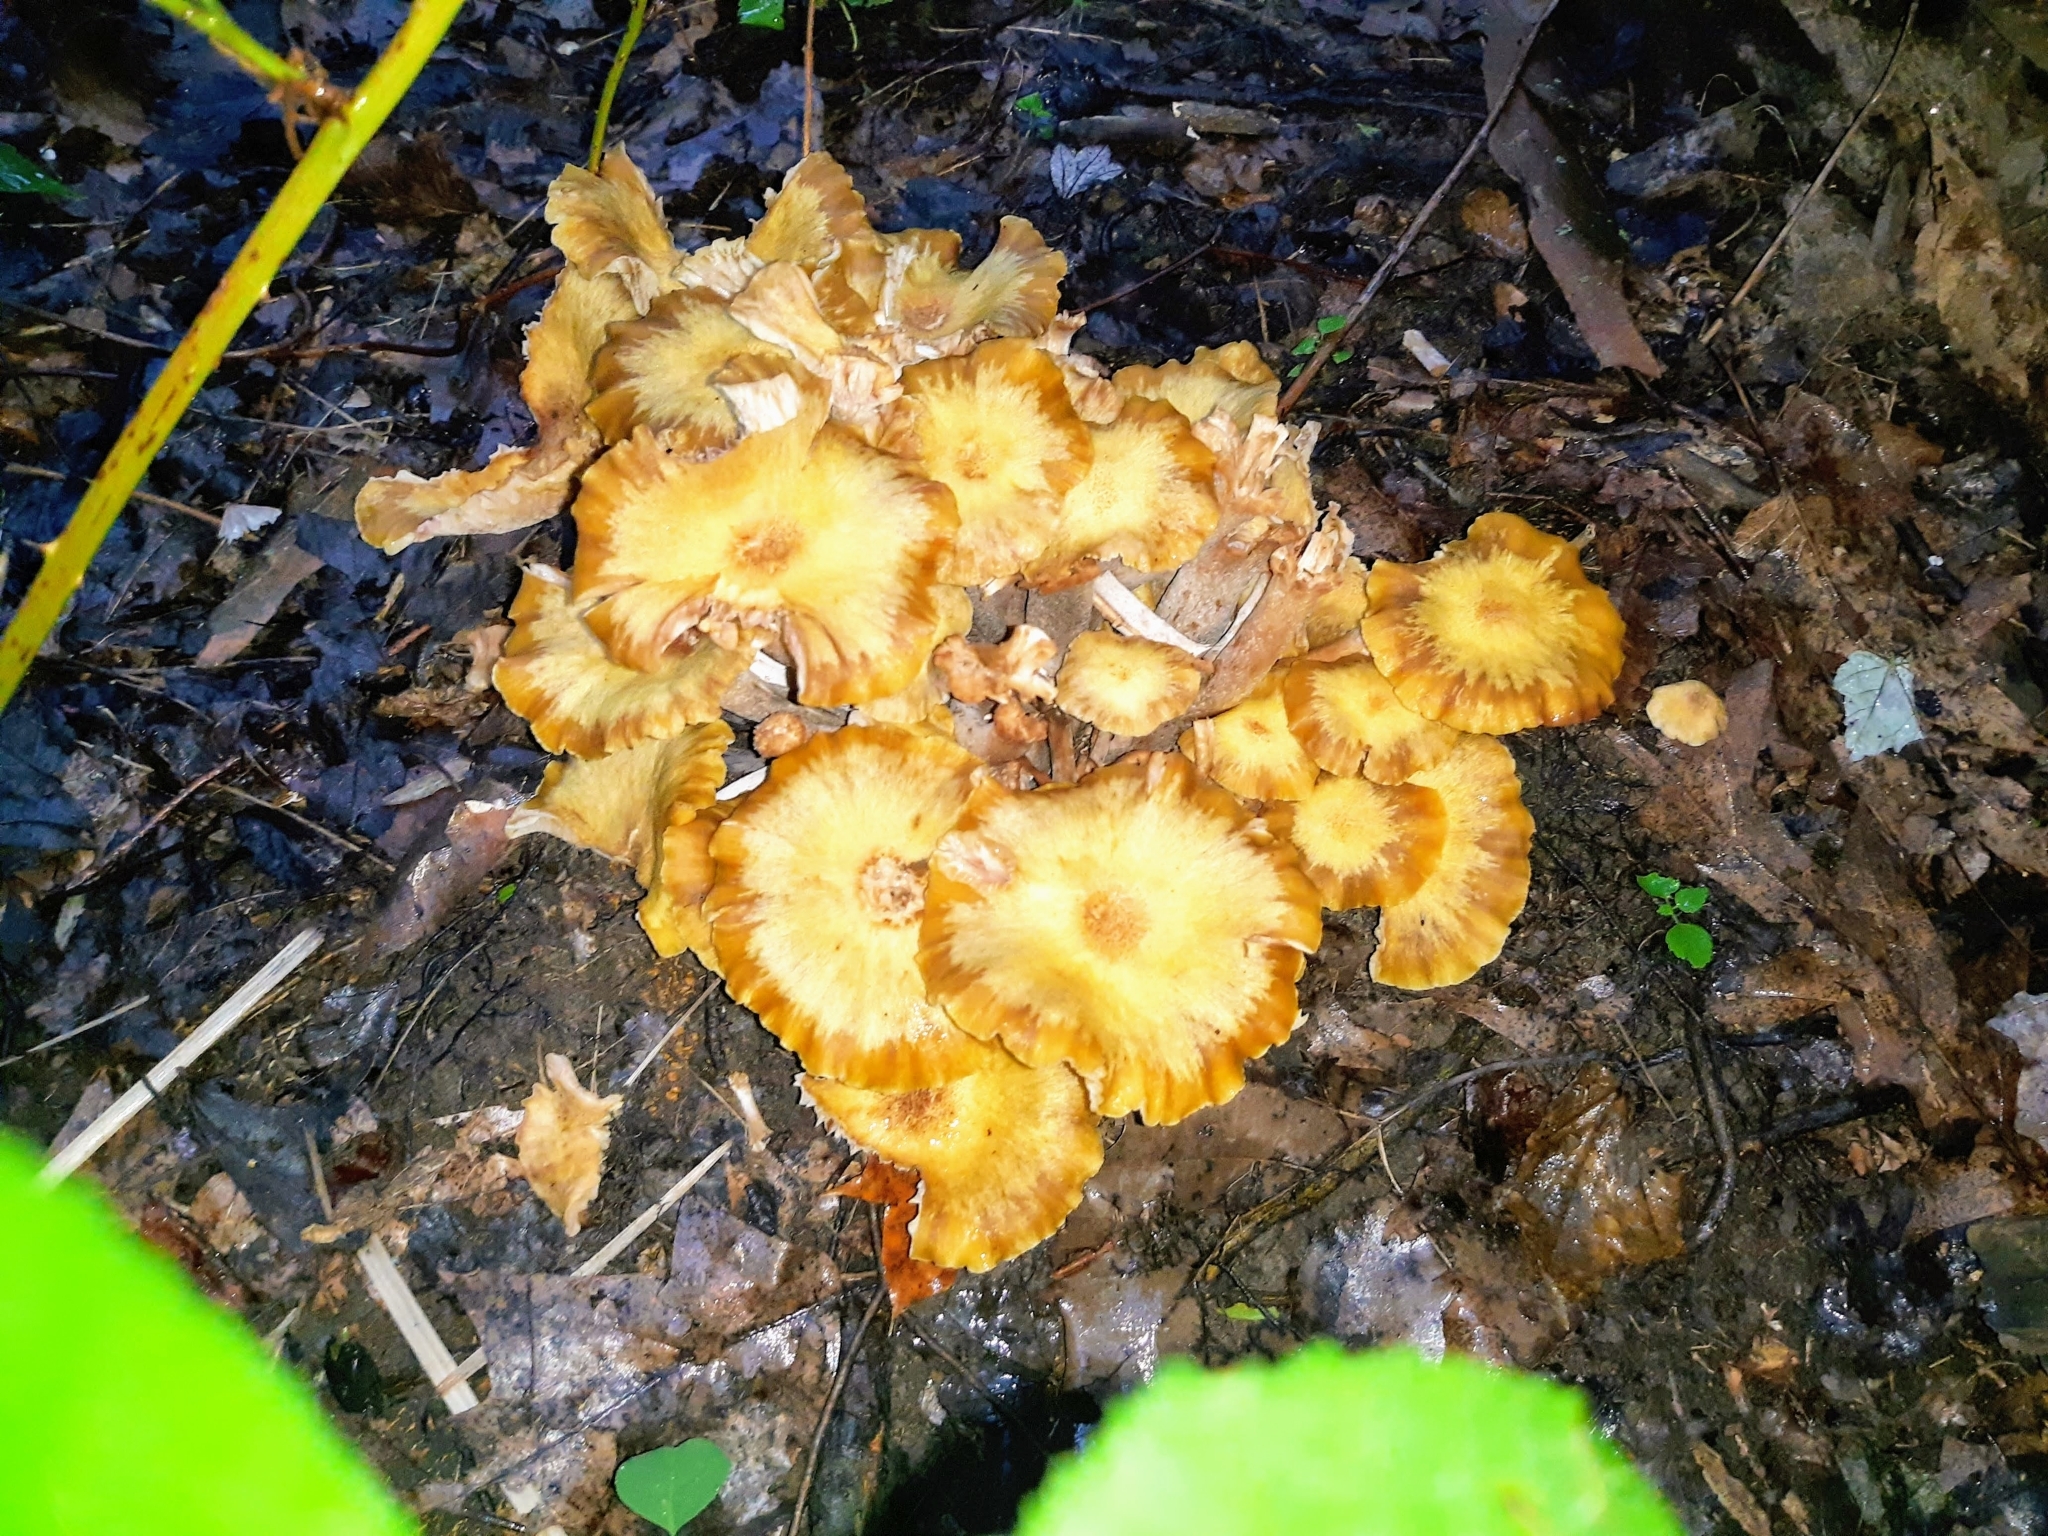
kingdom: Fungi
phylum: Basidiomycota
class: Agaricomycetes
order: Agaricales
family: Physalacriaceae
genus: Desarmillaria
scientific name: Desarmillaria caespitosa
